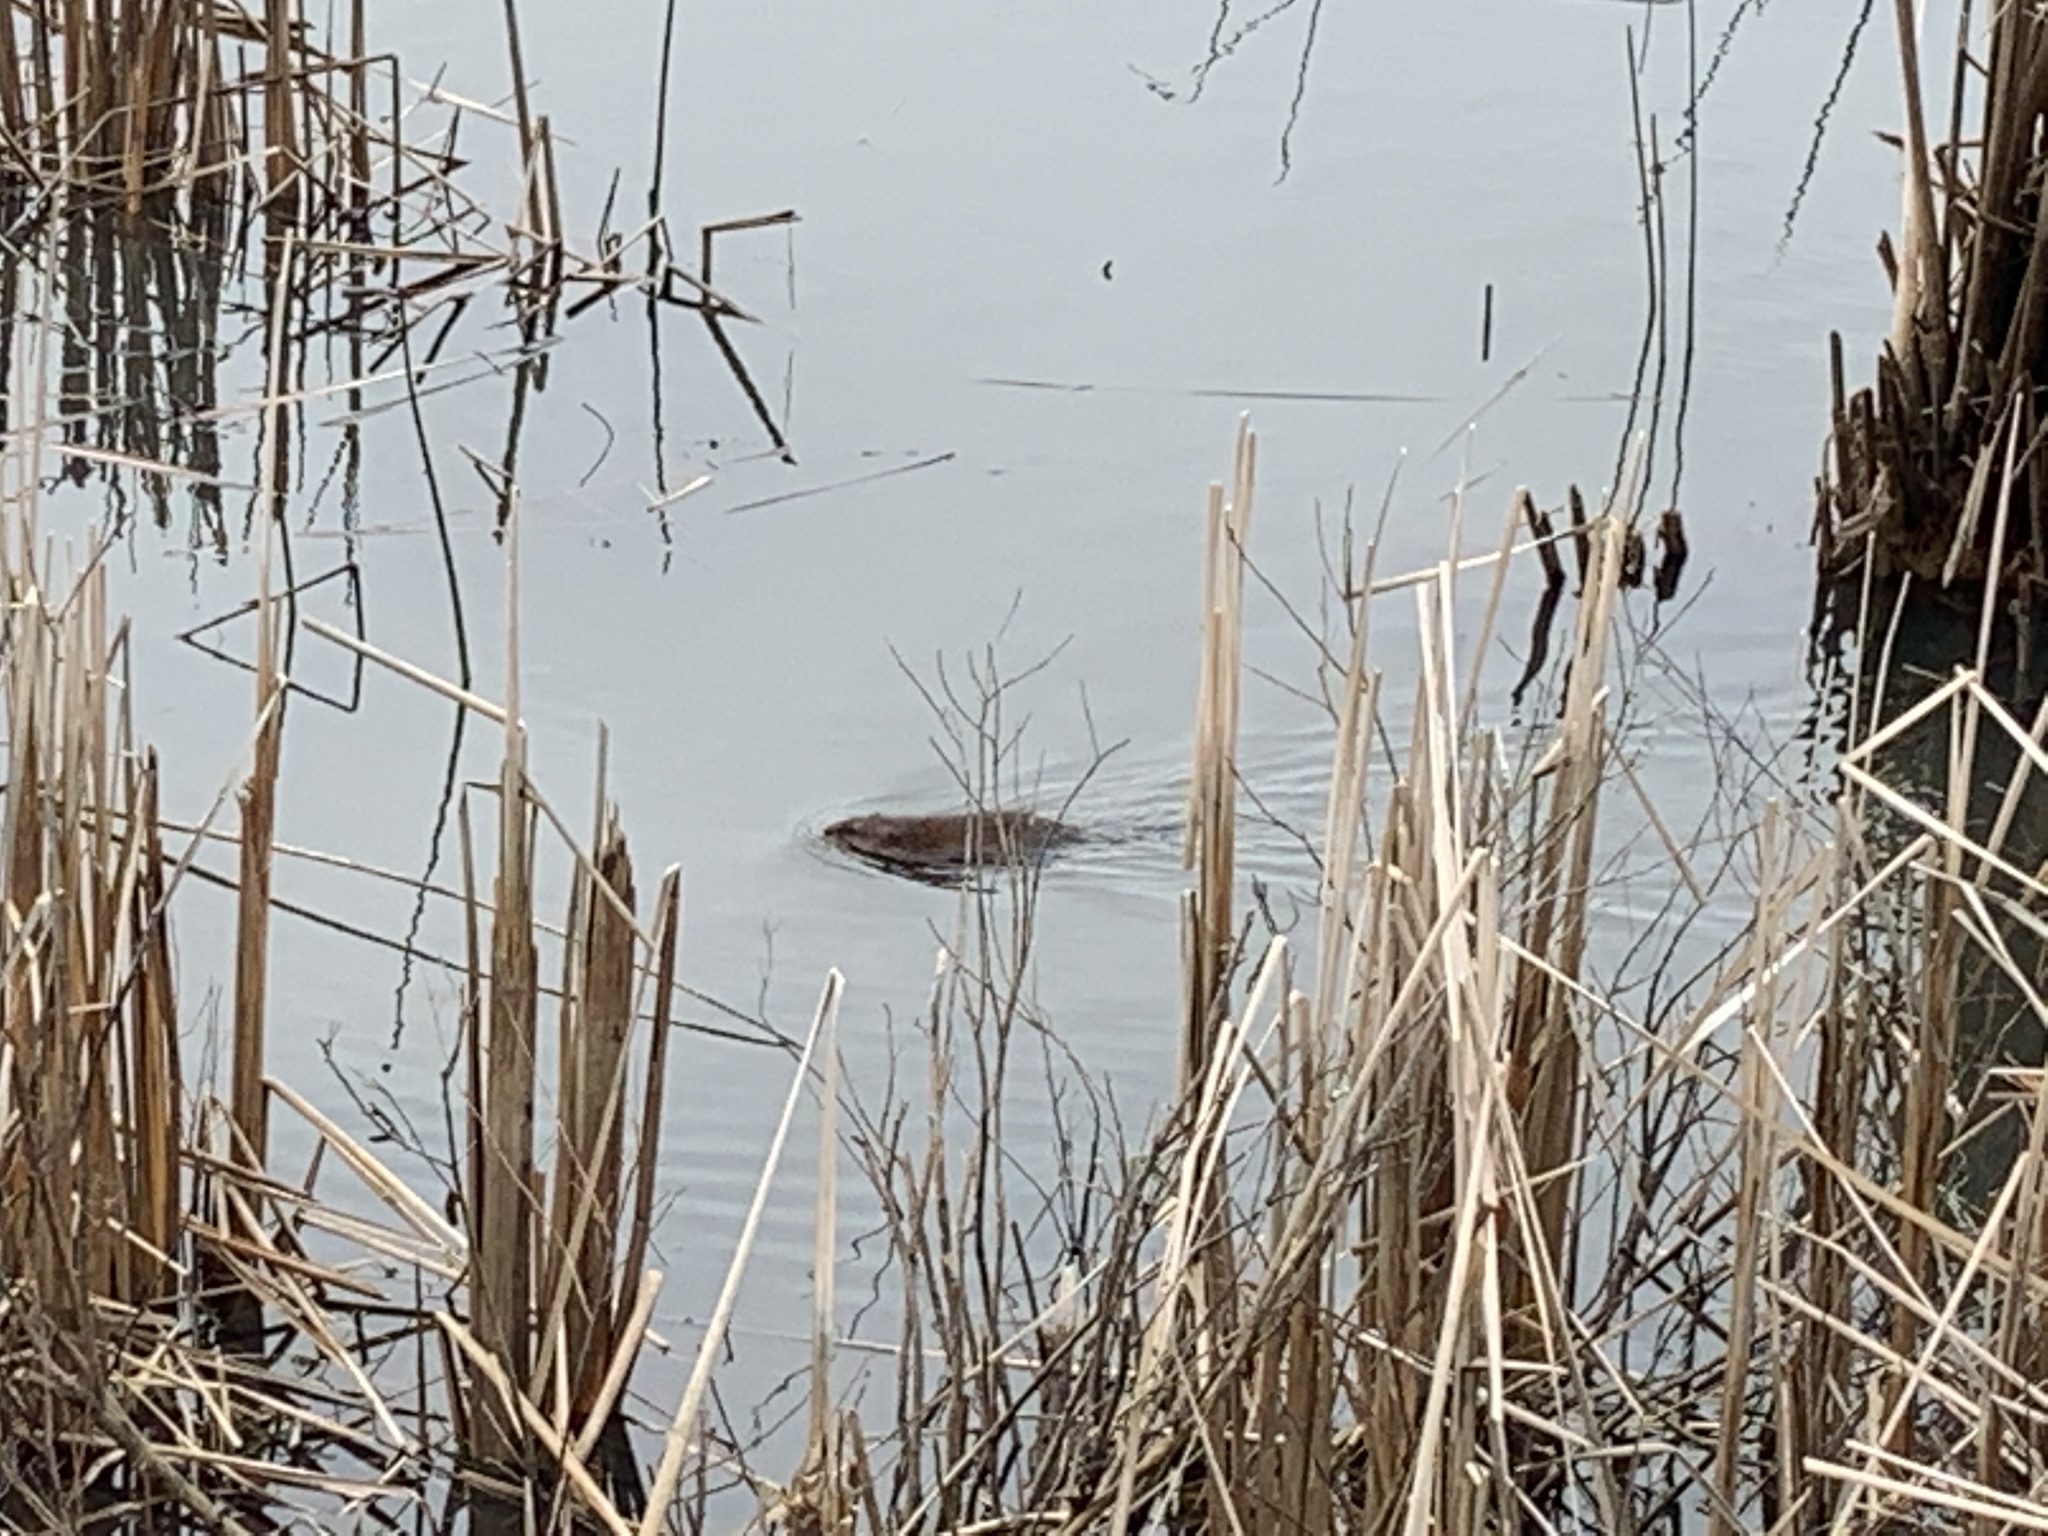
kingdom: Animalia
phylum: Chordata
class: Mammalia
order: Rodentia
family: Cricetidae
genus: Ondatra
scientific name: Ondatra zibethicus
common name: Muskrat
